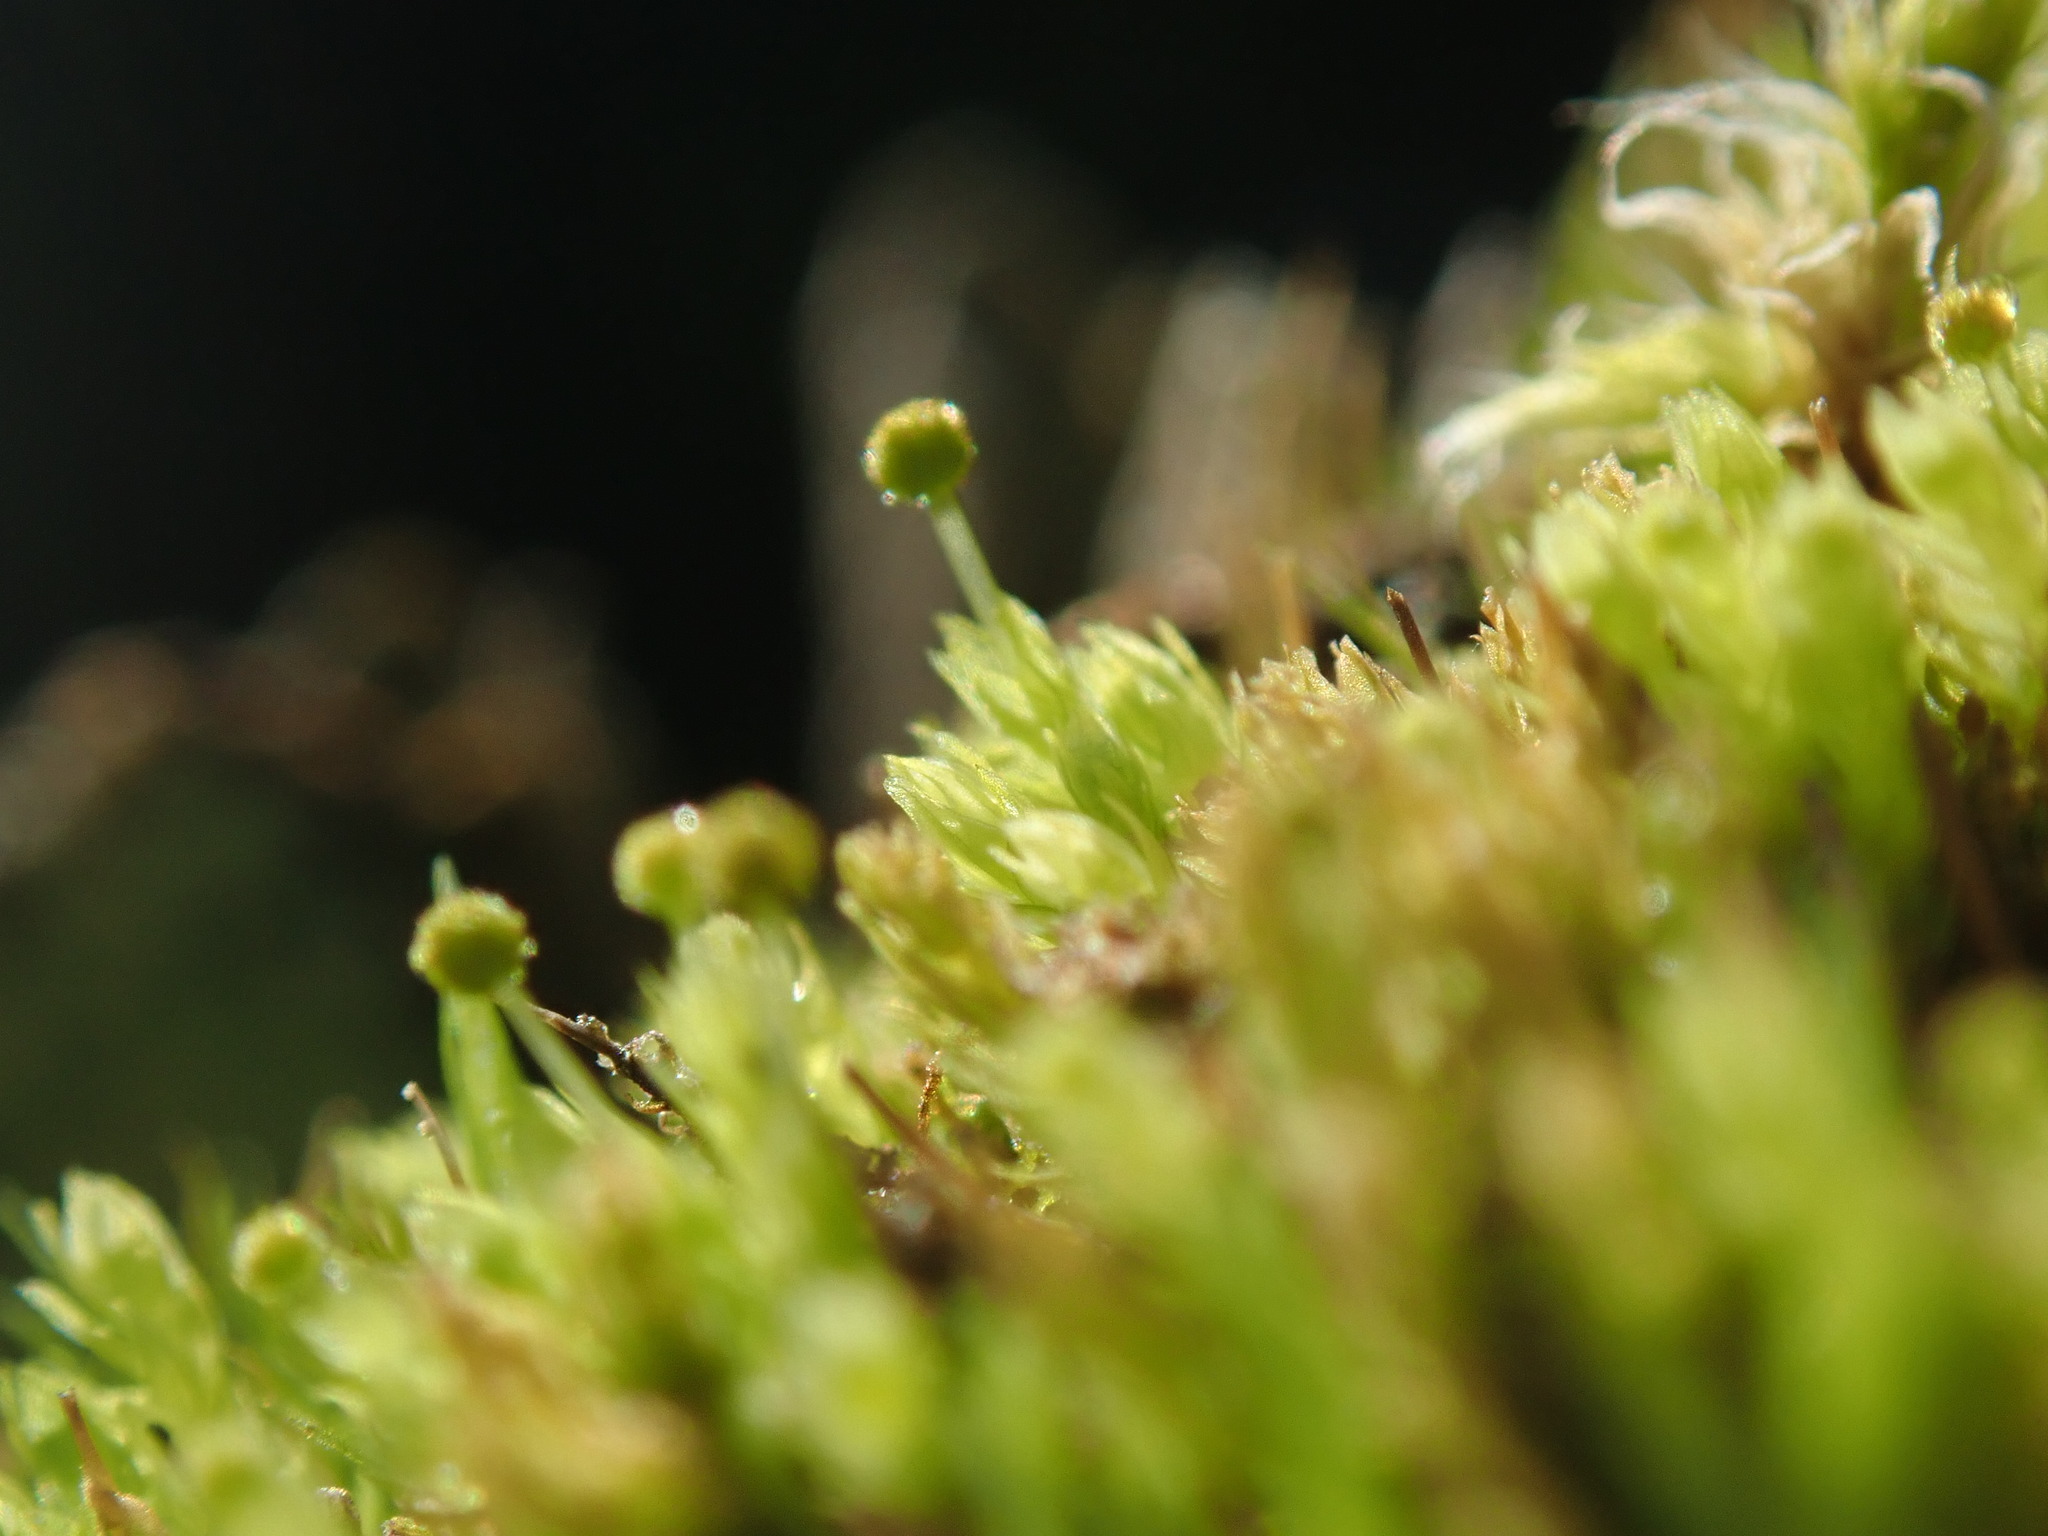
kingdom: Plantae
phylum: Bryophyta
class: Bryopsida
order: Aulacomniales
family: Aulacomniaceae
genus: Aulacomnium
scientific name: Aulacomnium androgynum
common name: Little groove moss
